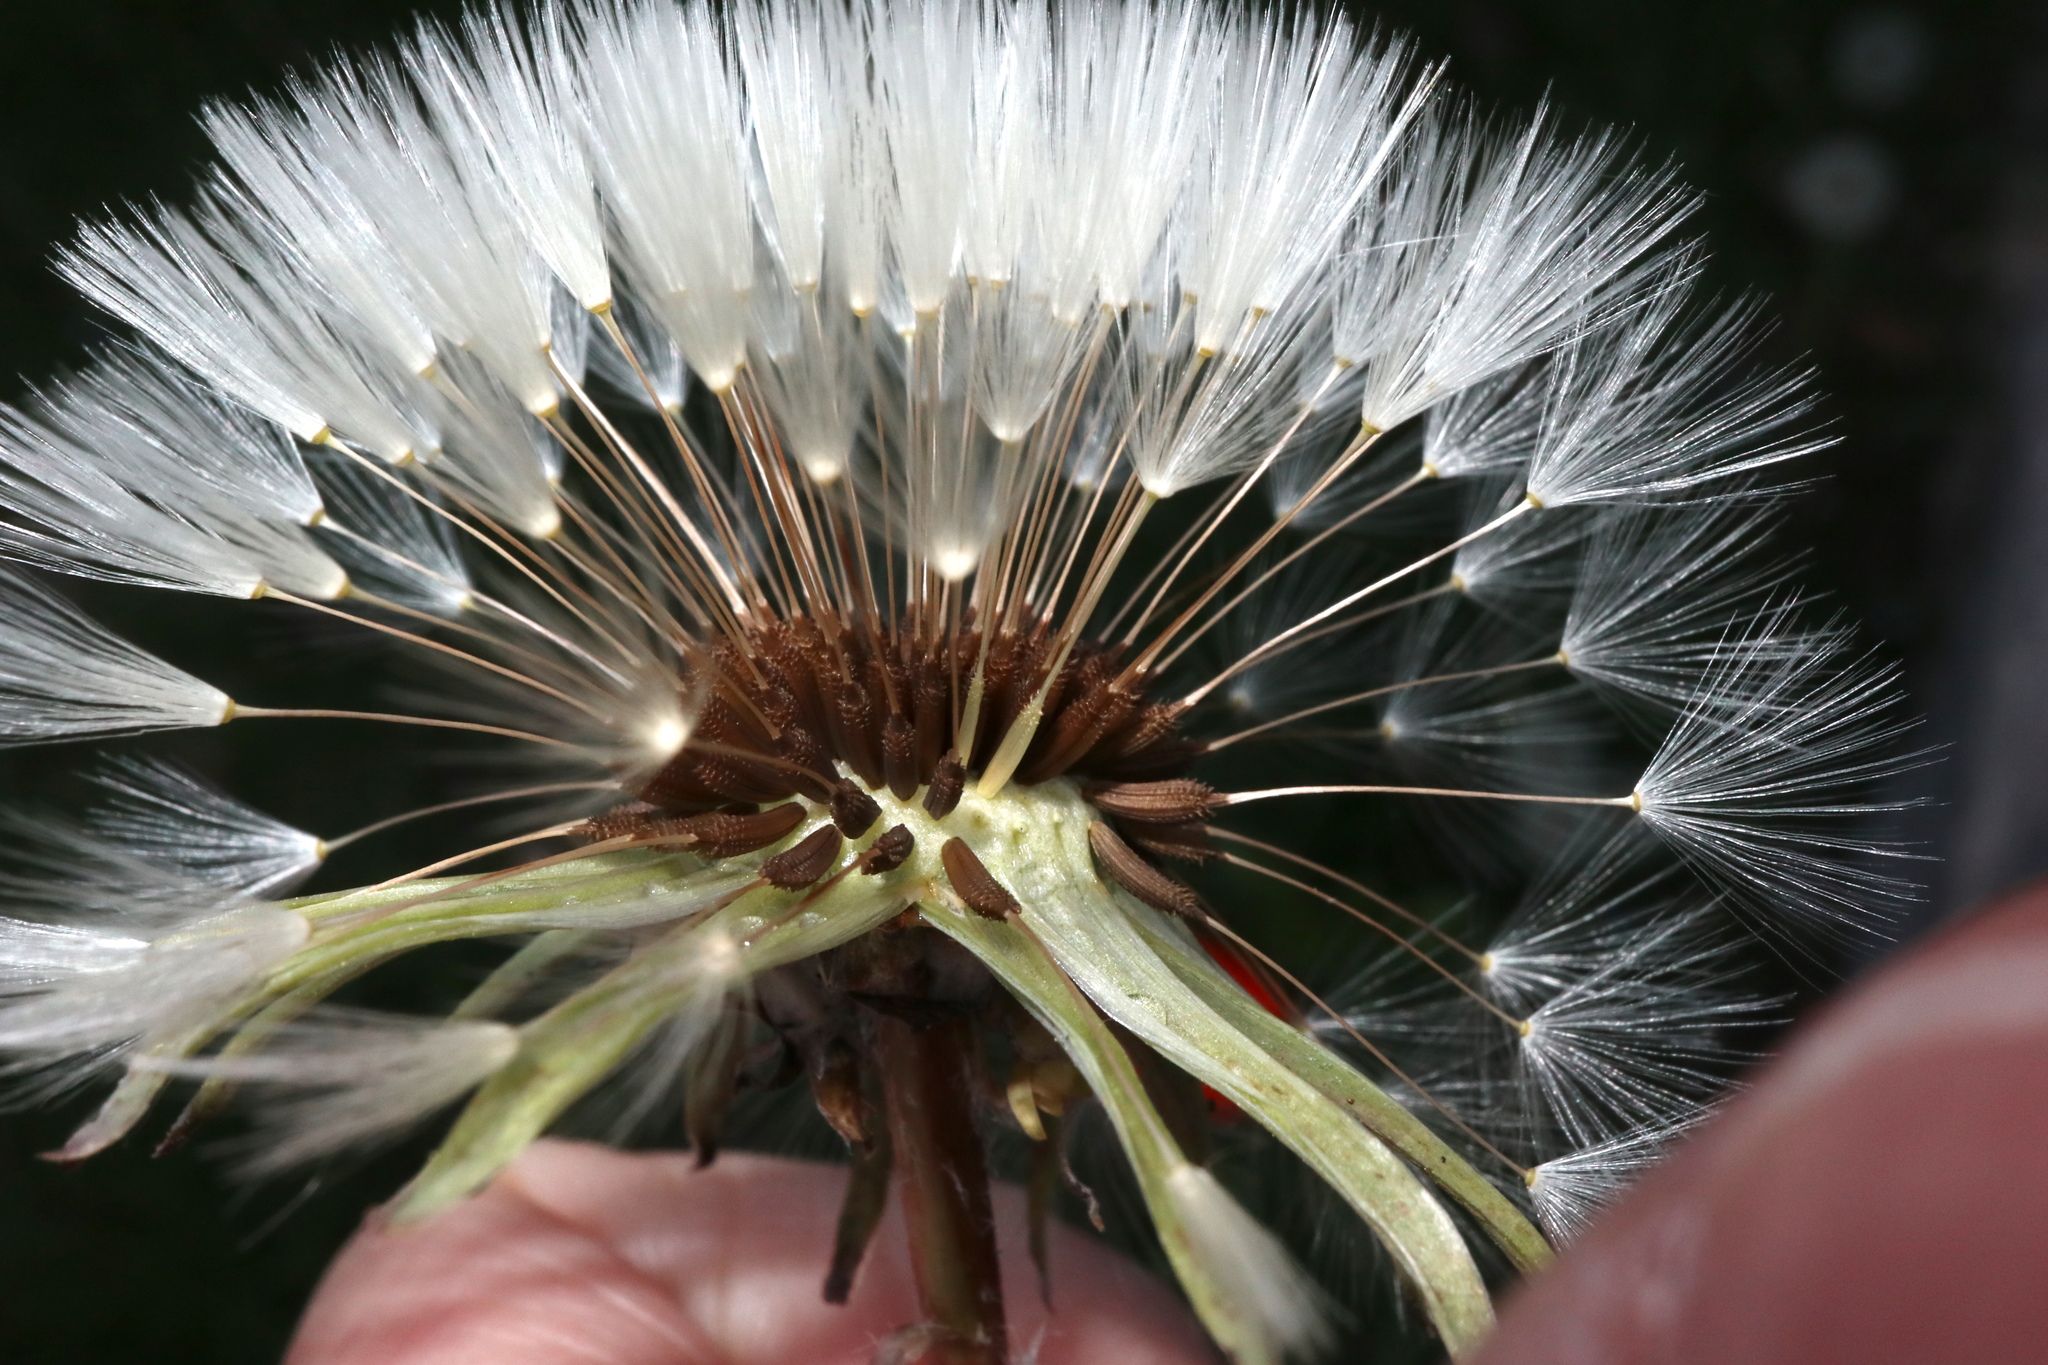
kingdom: Plantae
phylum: Tracheophyta
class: Magnoliopsida
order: Asterales
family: Asteraceae
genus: Taraxacum
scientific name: Taraxacum erythrospermum
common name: Rock dandelion
